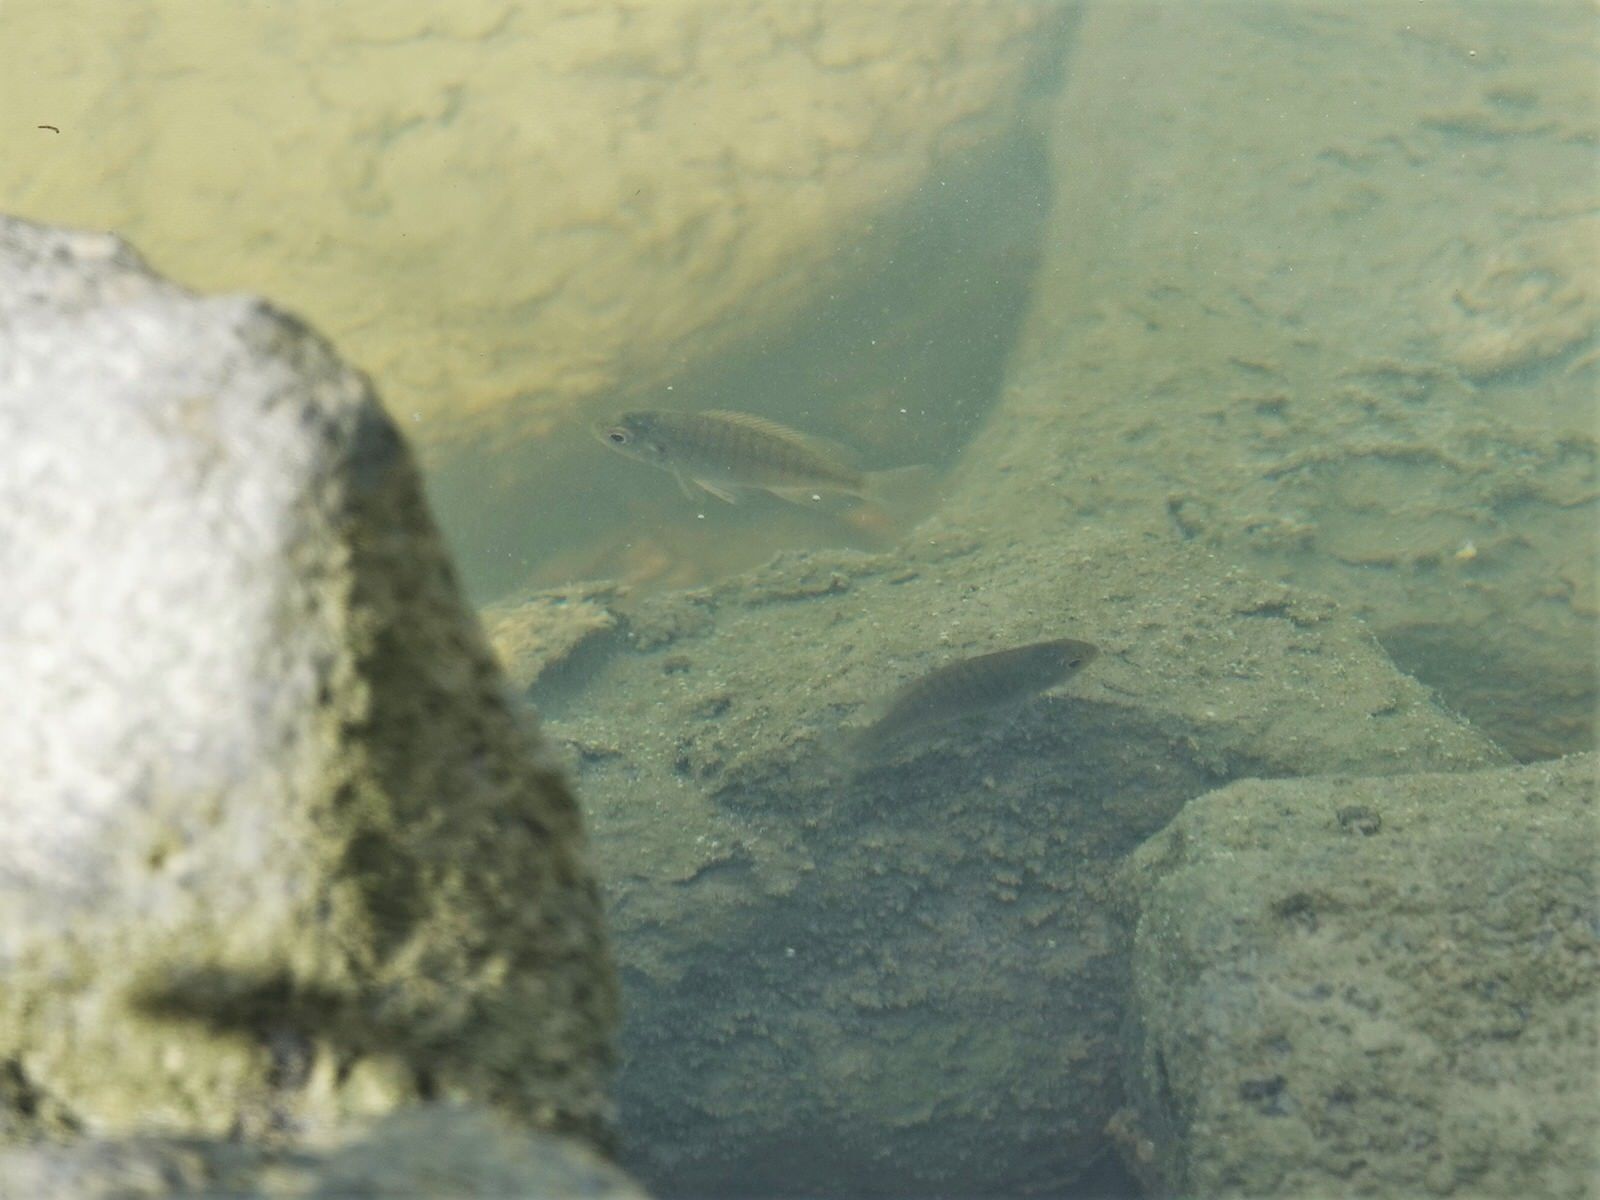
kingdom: Animalia
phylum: Chordata
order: Perciformes
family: Kyphosidae
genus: Girella
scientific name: Girella tricuspidata
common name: Parore
